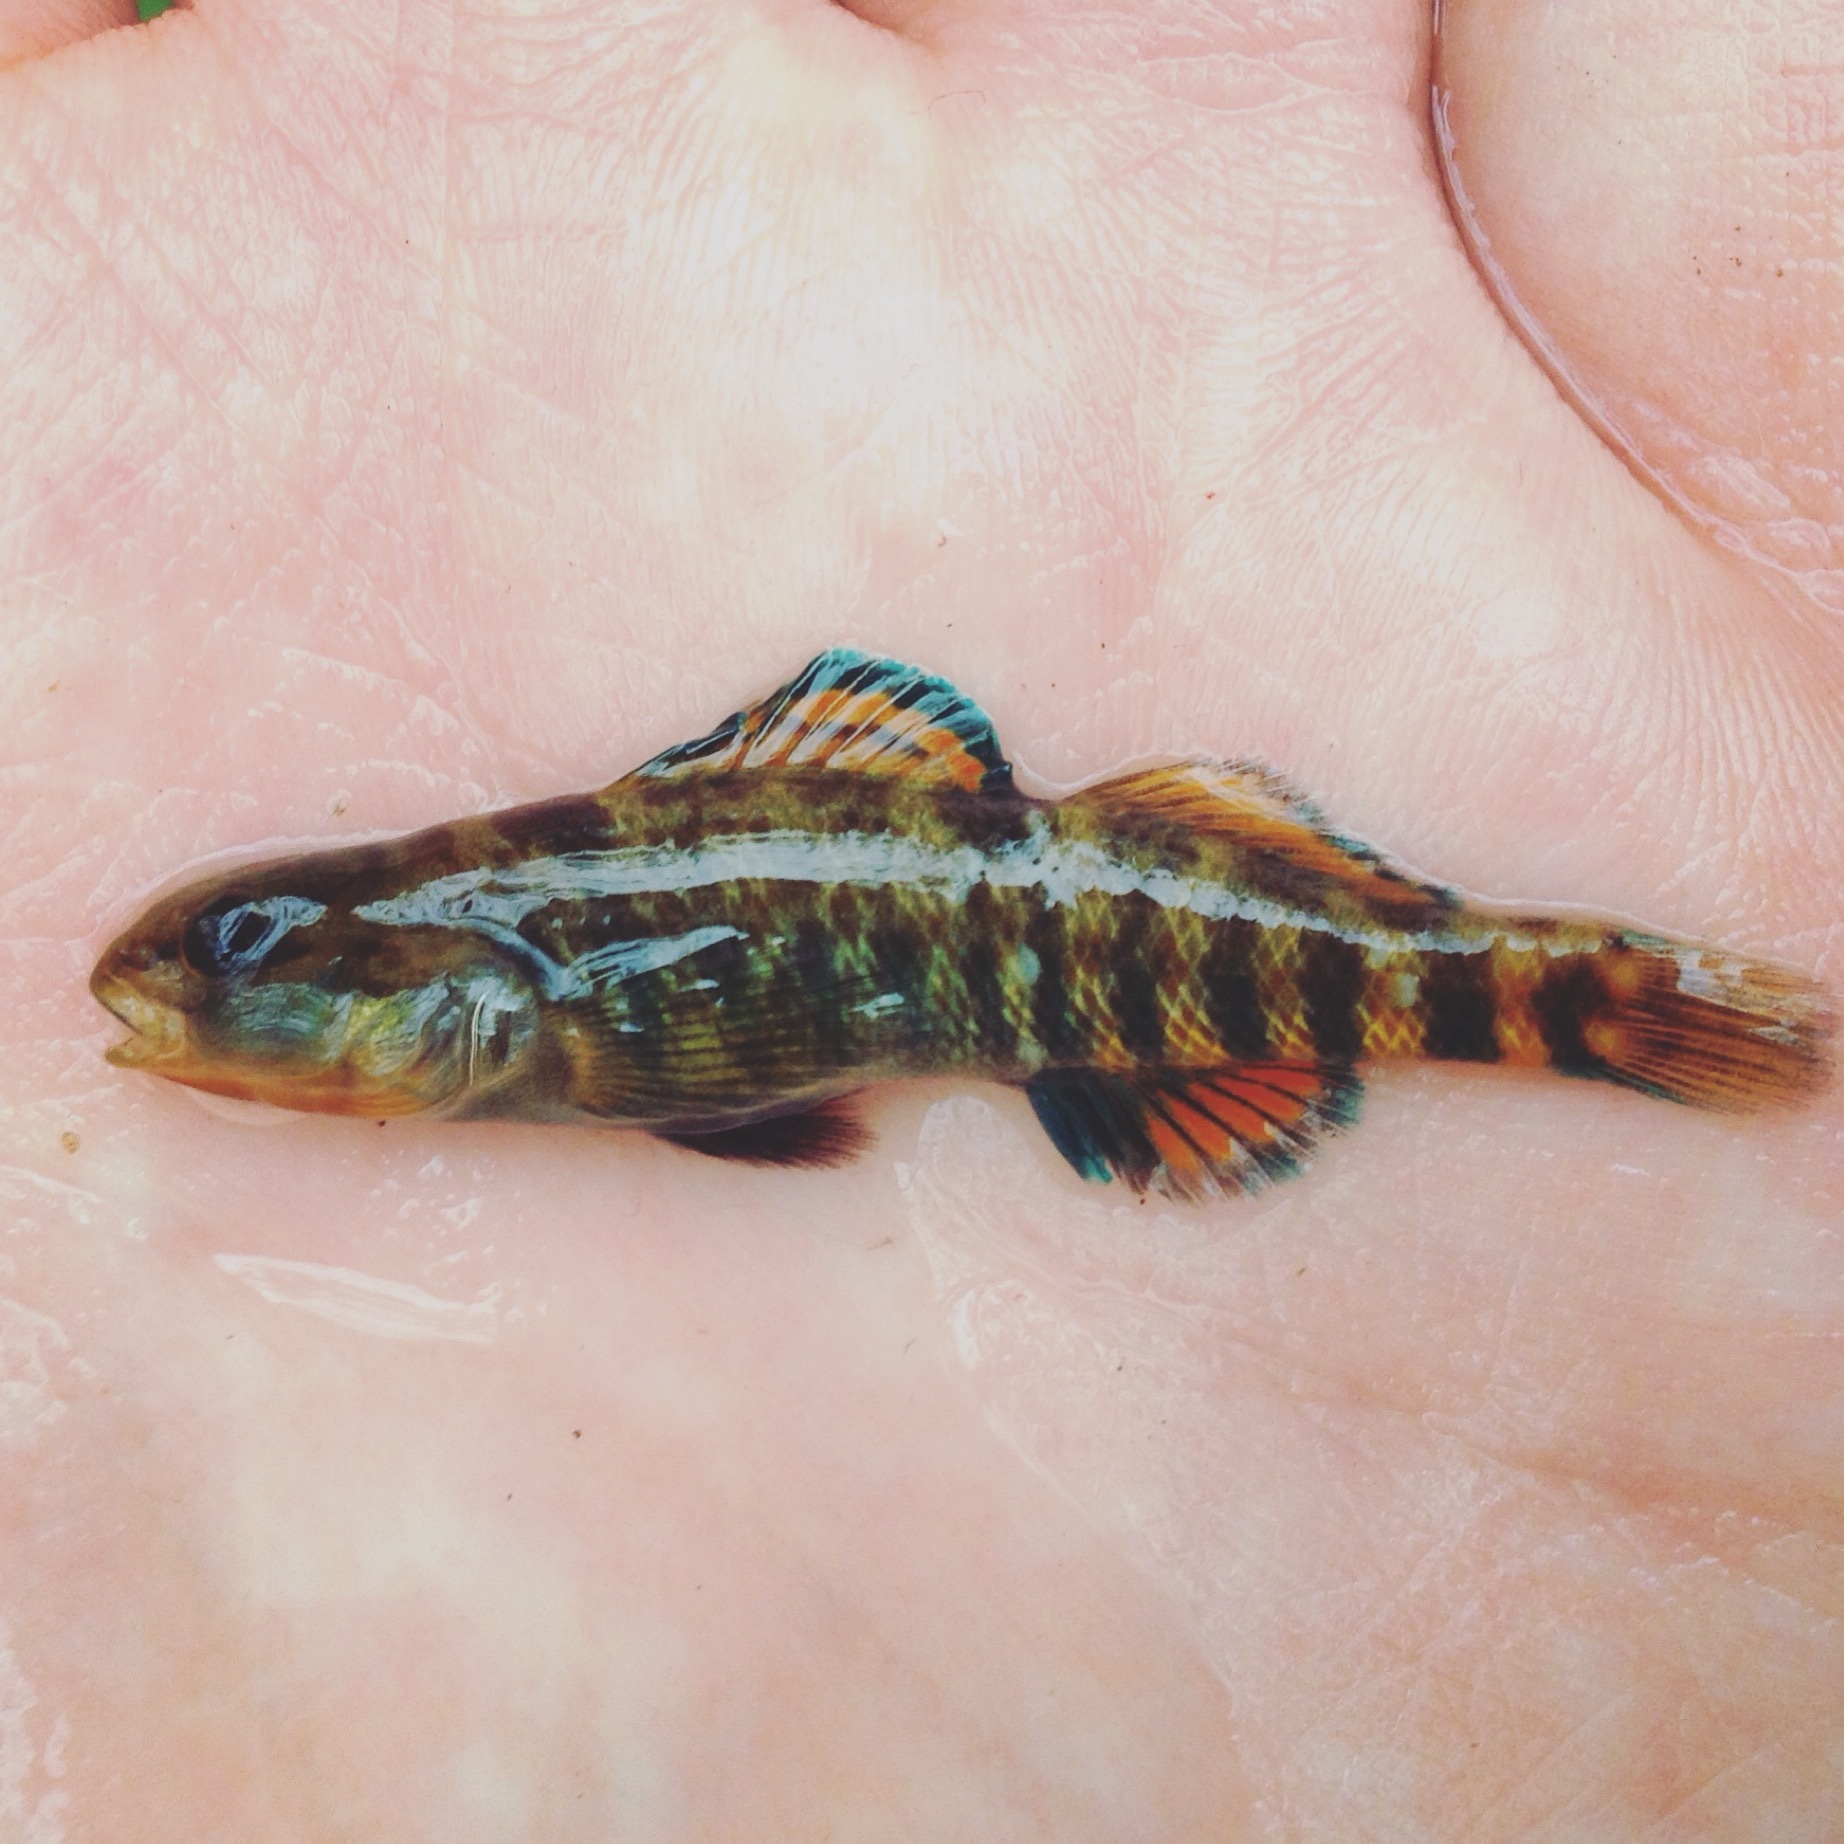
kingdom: Animalia
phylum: Chordata
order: Perciformes
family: Percidae
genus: Etheostoma
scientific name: Etheostoma caeruleum
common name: Rainbow darter
